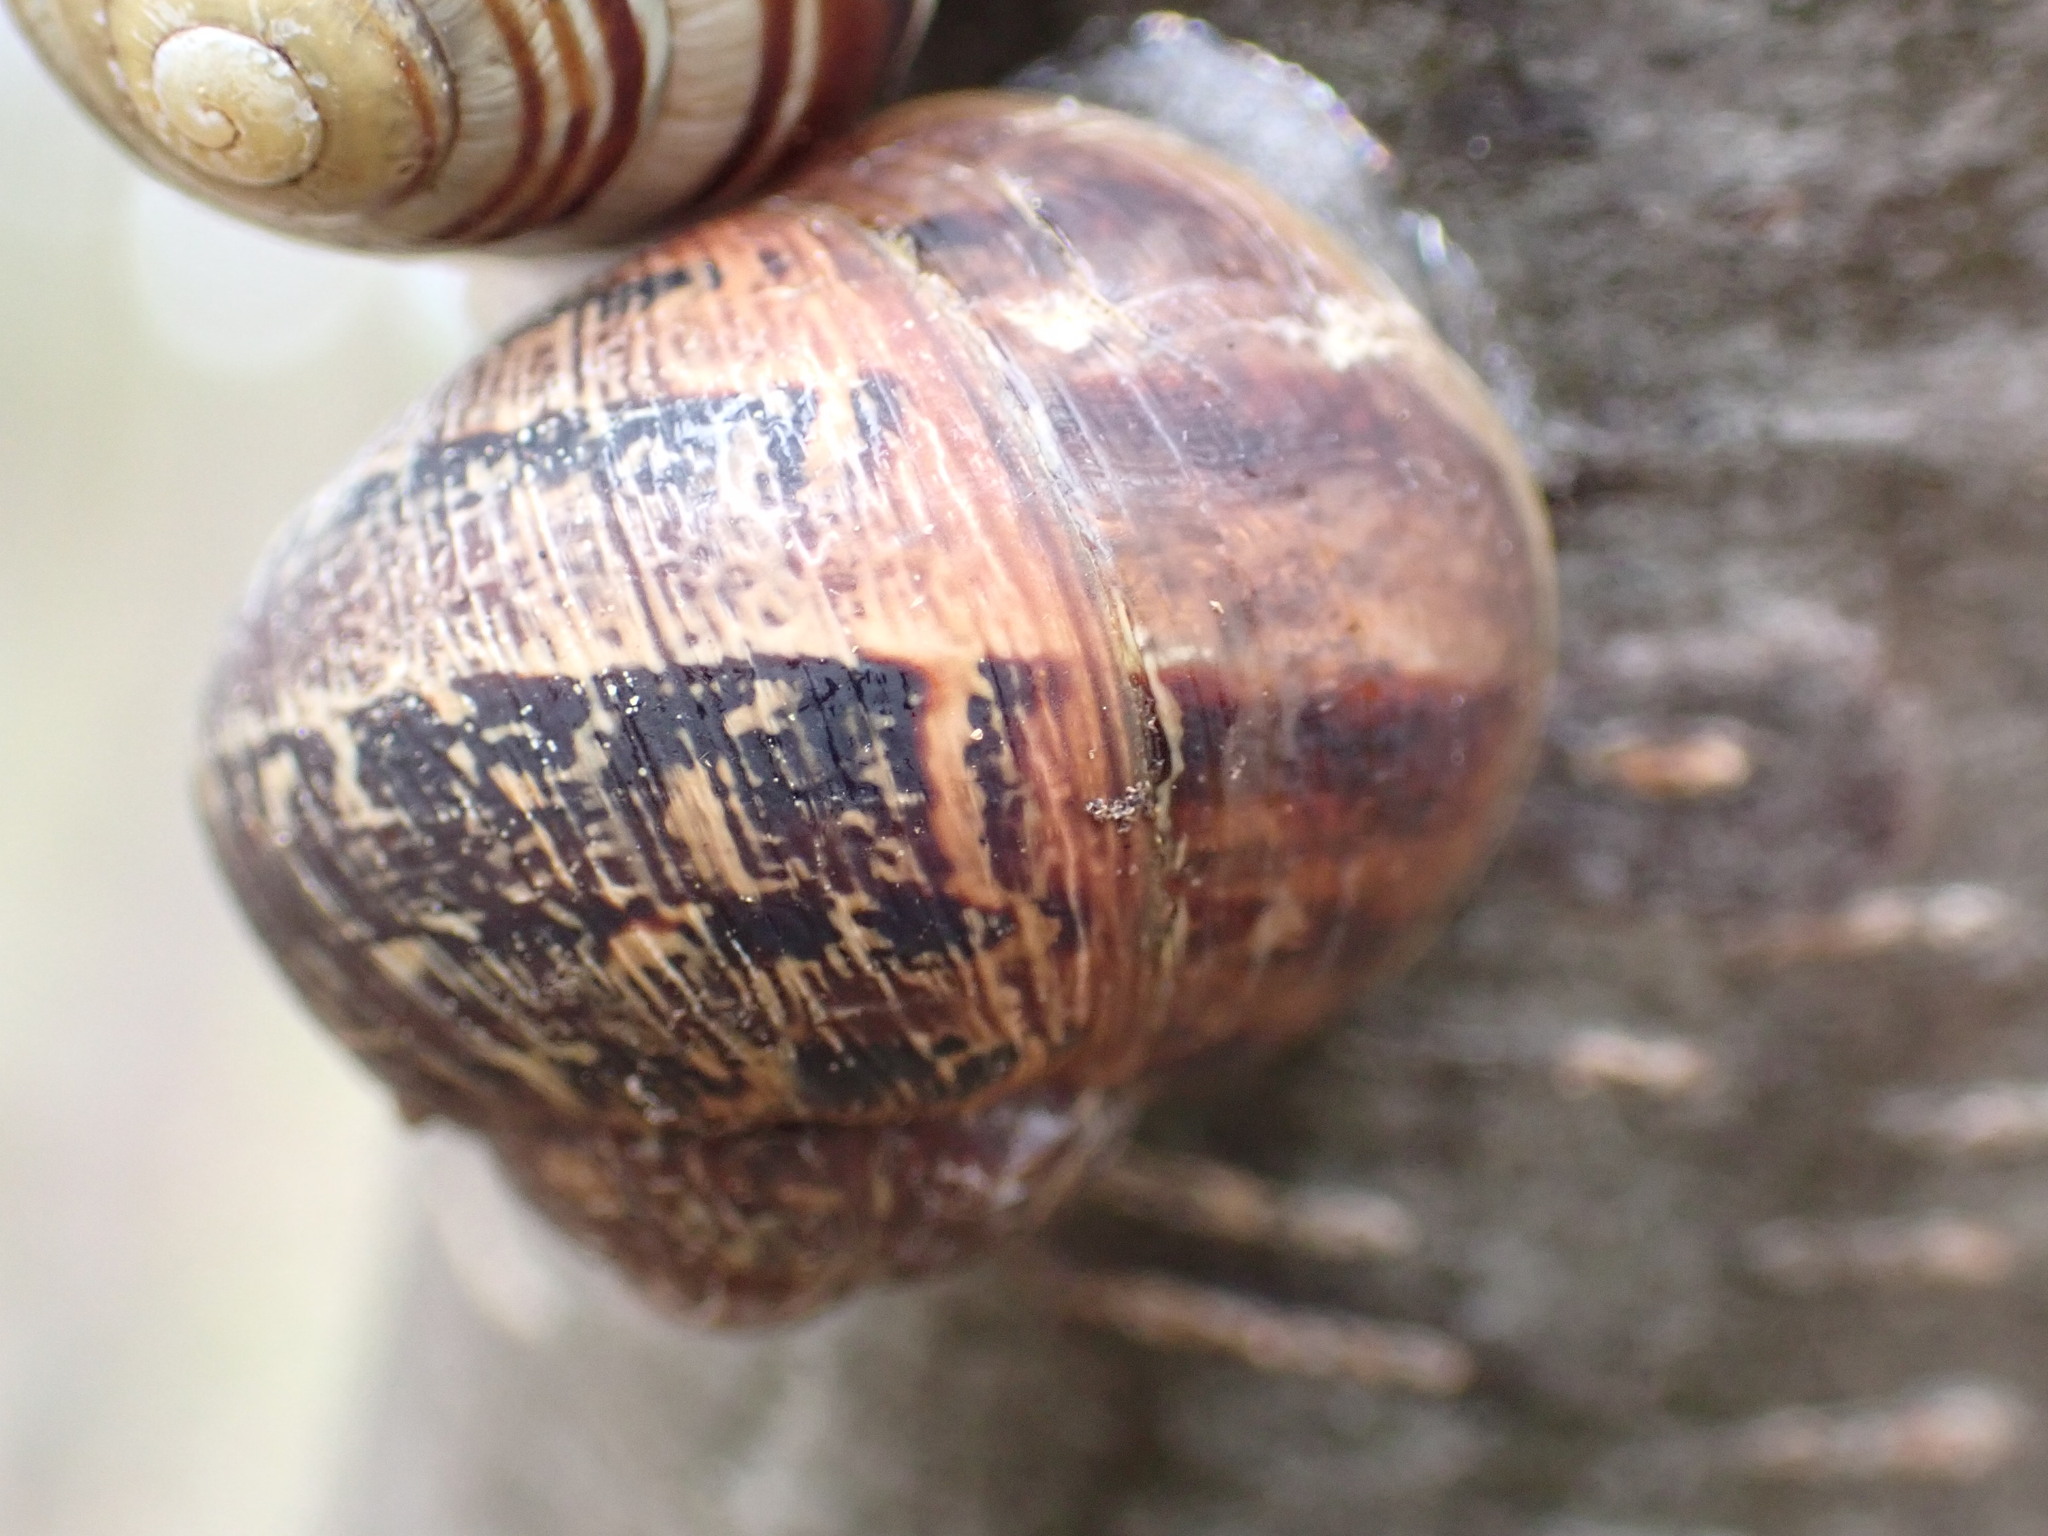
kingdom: Animalia
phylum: Mollusca
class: Gastropoda
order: Stylommatophora
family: Helicidae
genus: Cornu
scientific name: Cornu aspersum
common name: Brown garden snail
